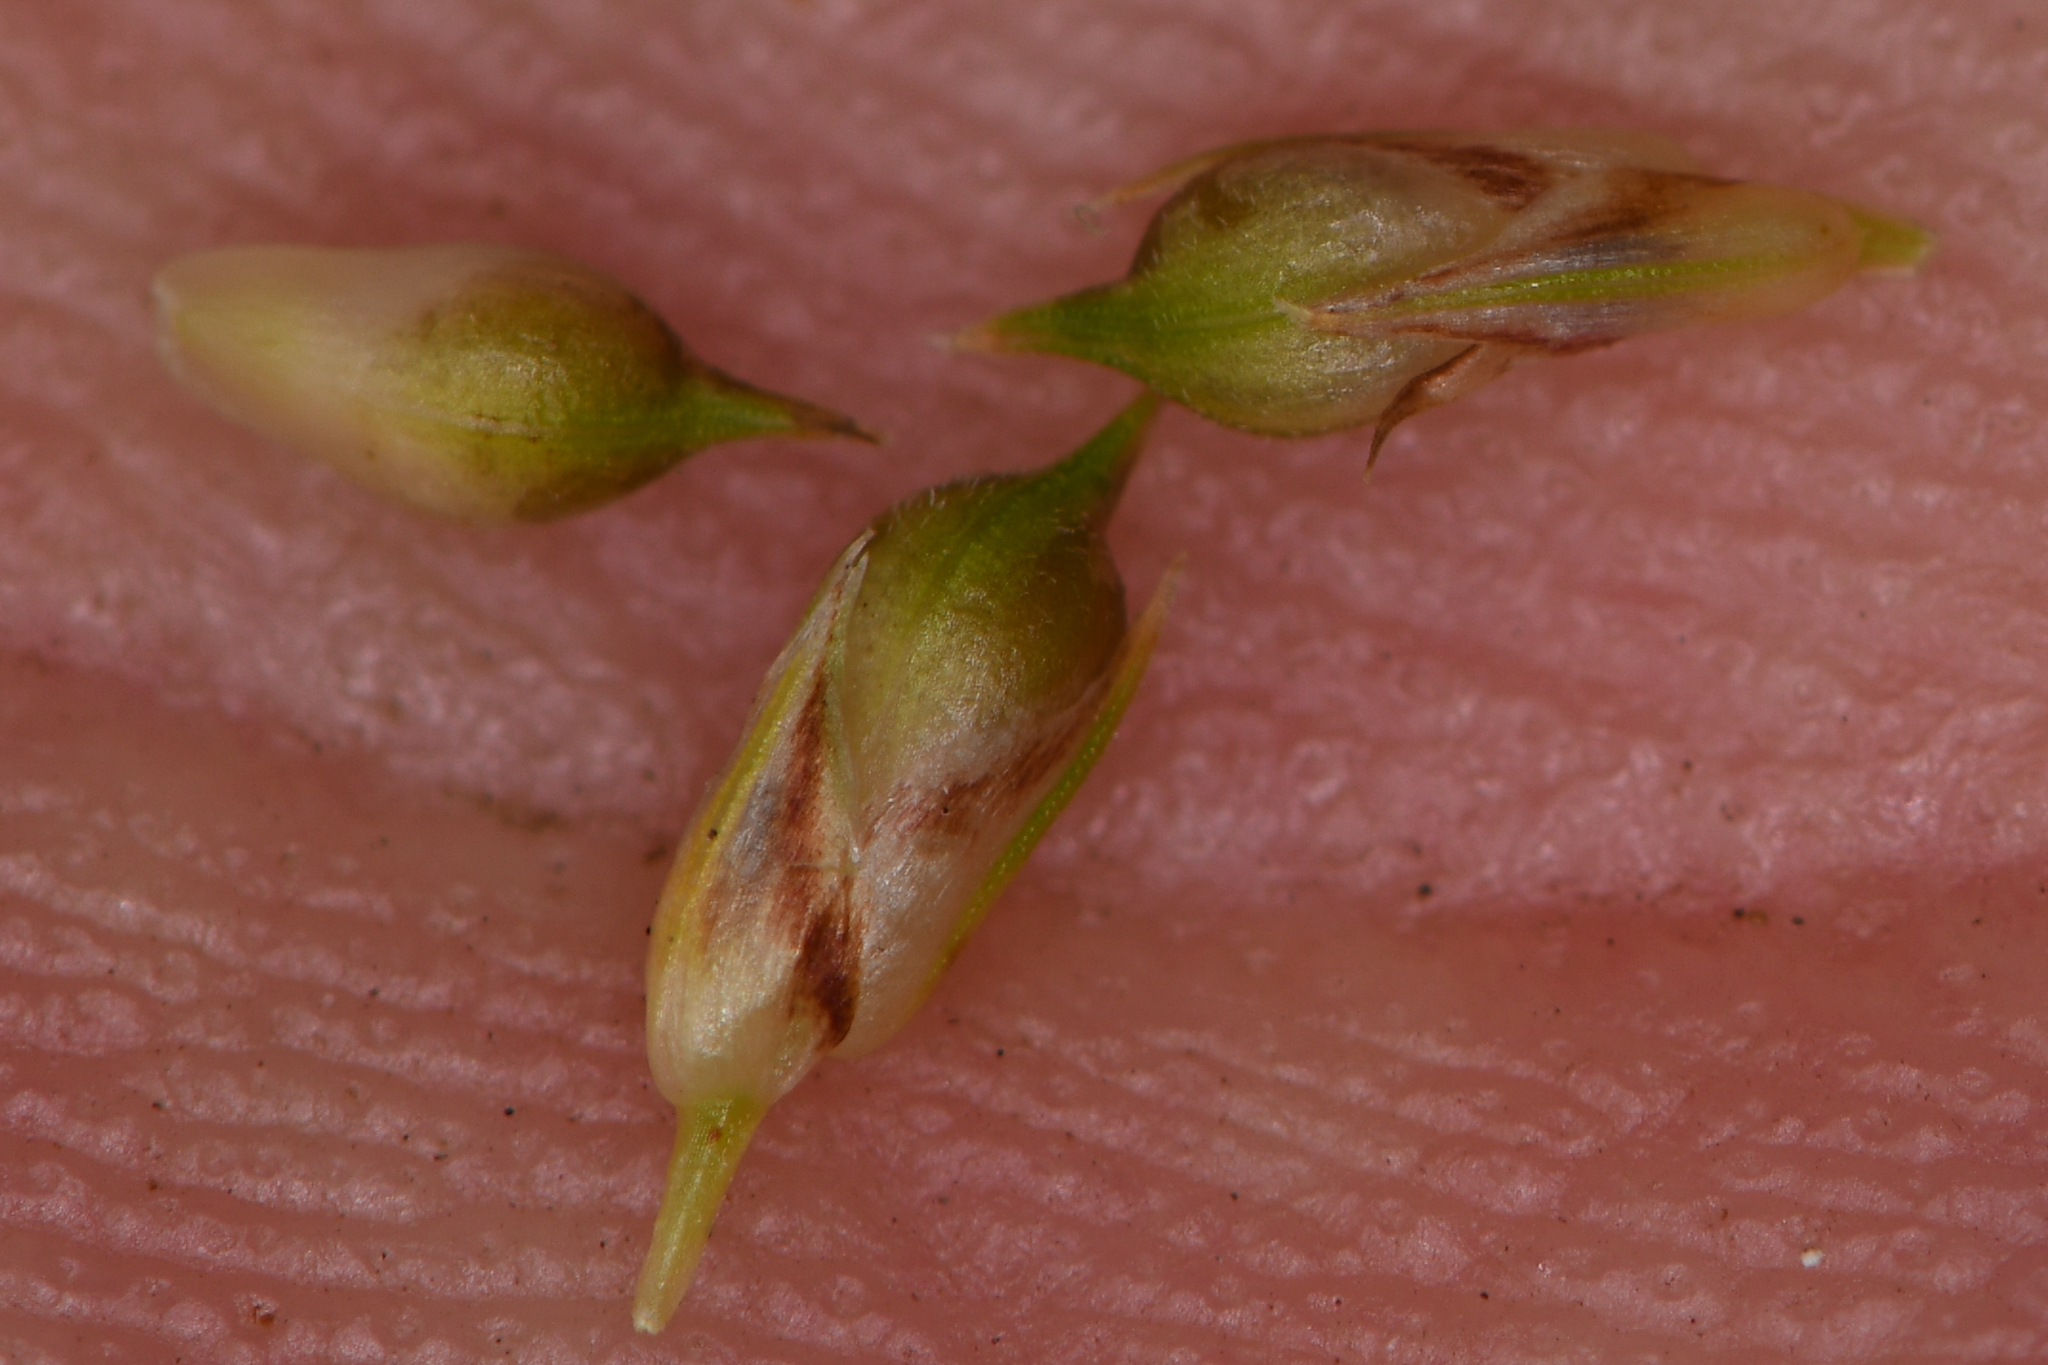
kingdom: Plantae
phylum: Tracheophyta
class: Liliopsida
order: Poales
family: Cyperaceae
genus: Carex
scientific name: Carex rossii
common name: Ross' sedge
